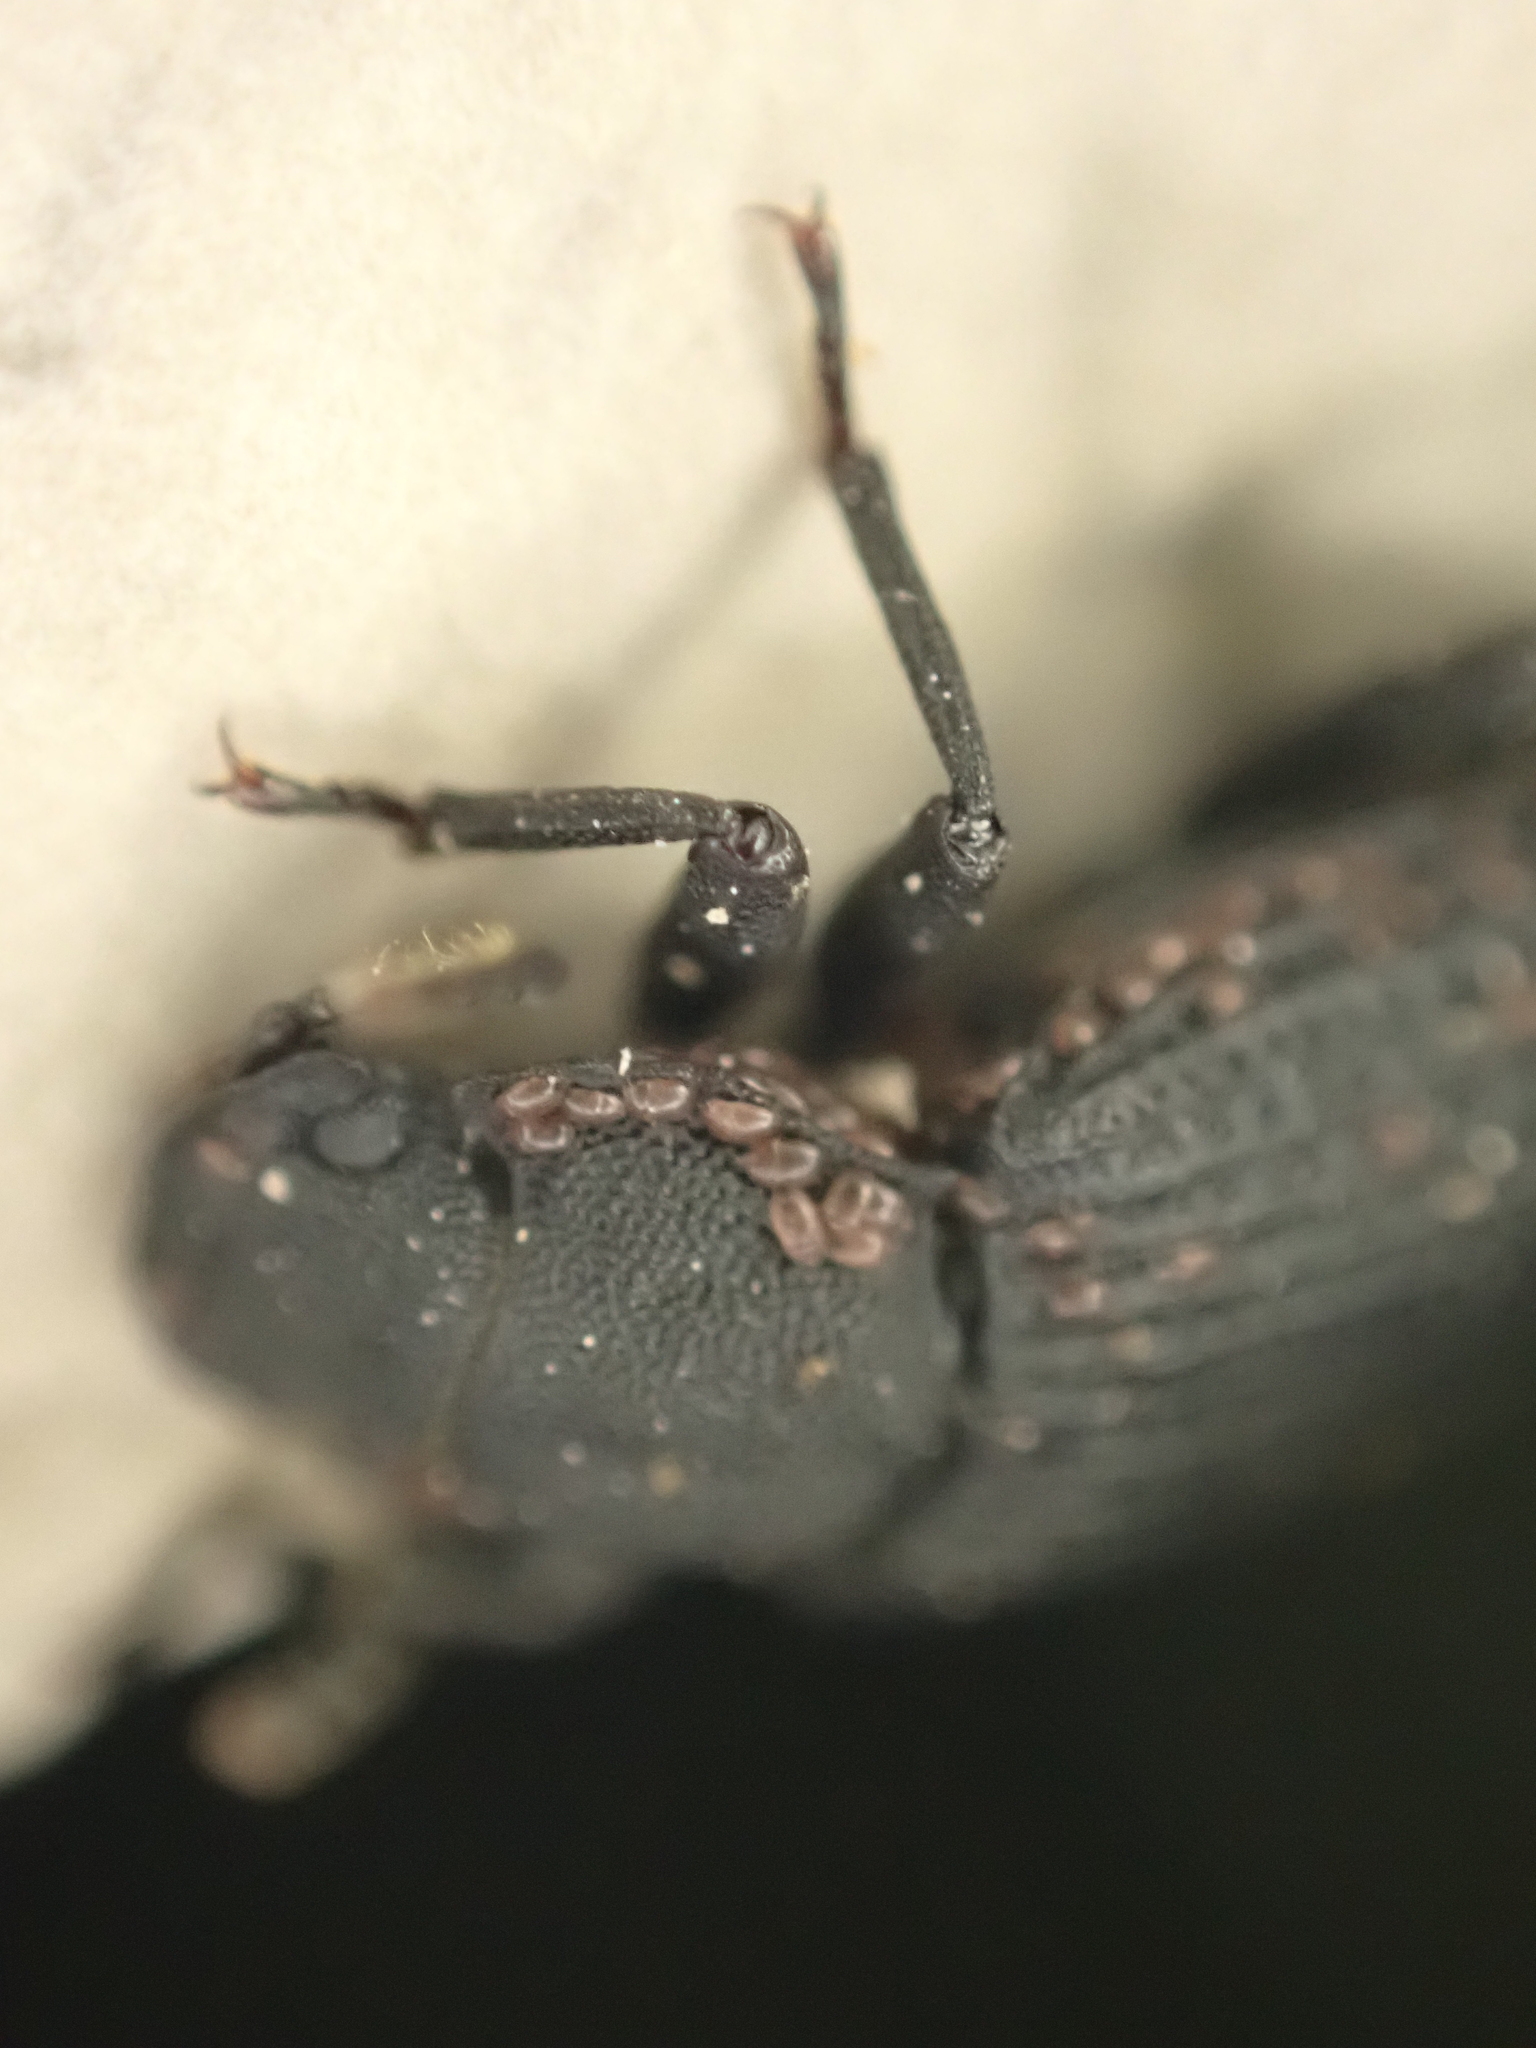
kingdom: Animalia
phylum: Arthropoda
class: Arachnida
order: Sarcoptiformes
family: Acaridae
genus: Boletoglyphus
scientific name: Boletoglyphus boletophagi
